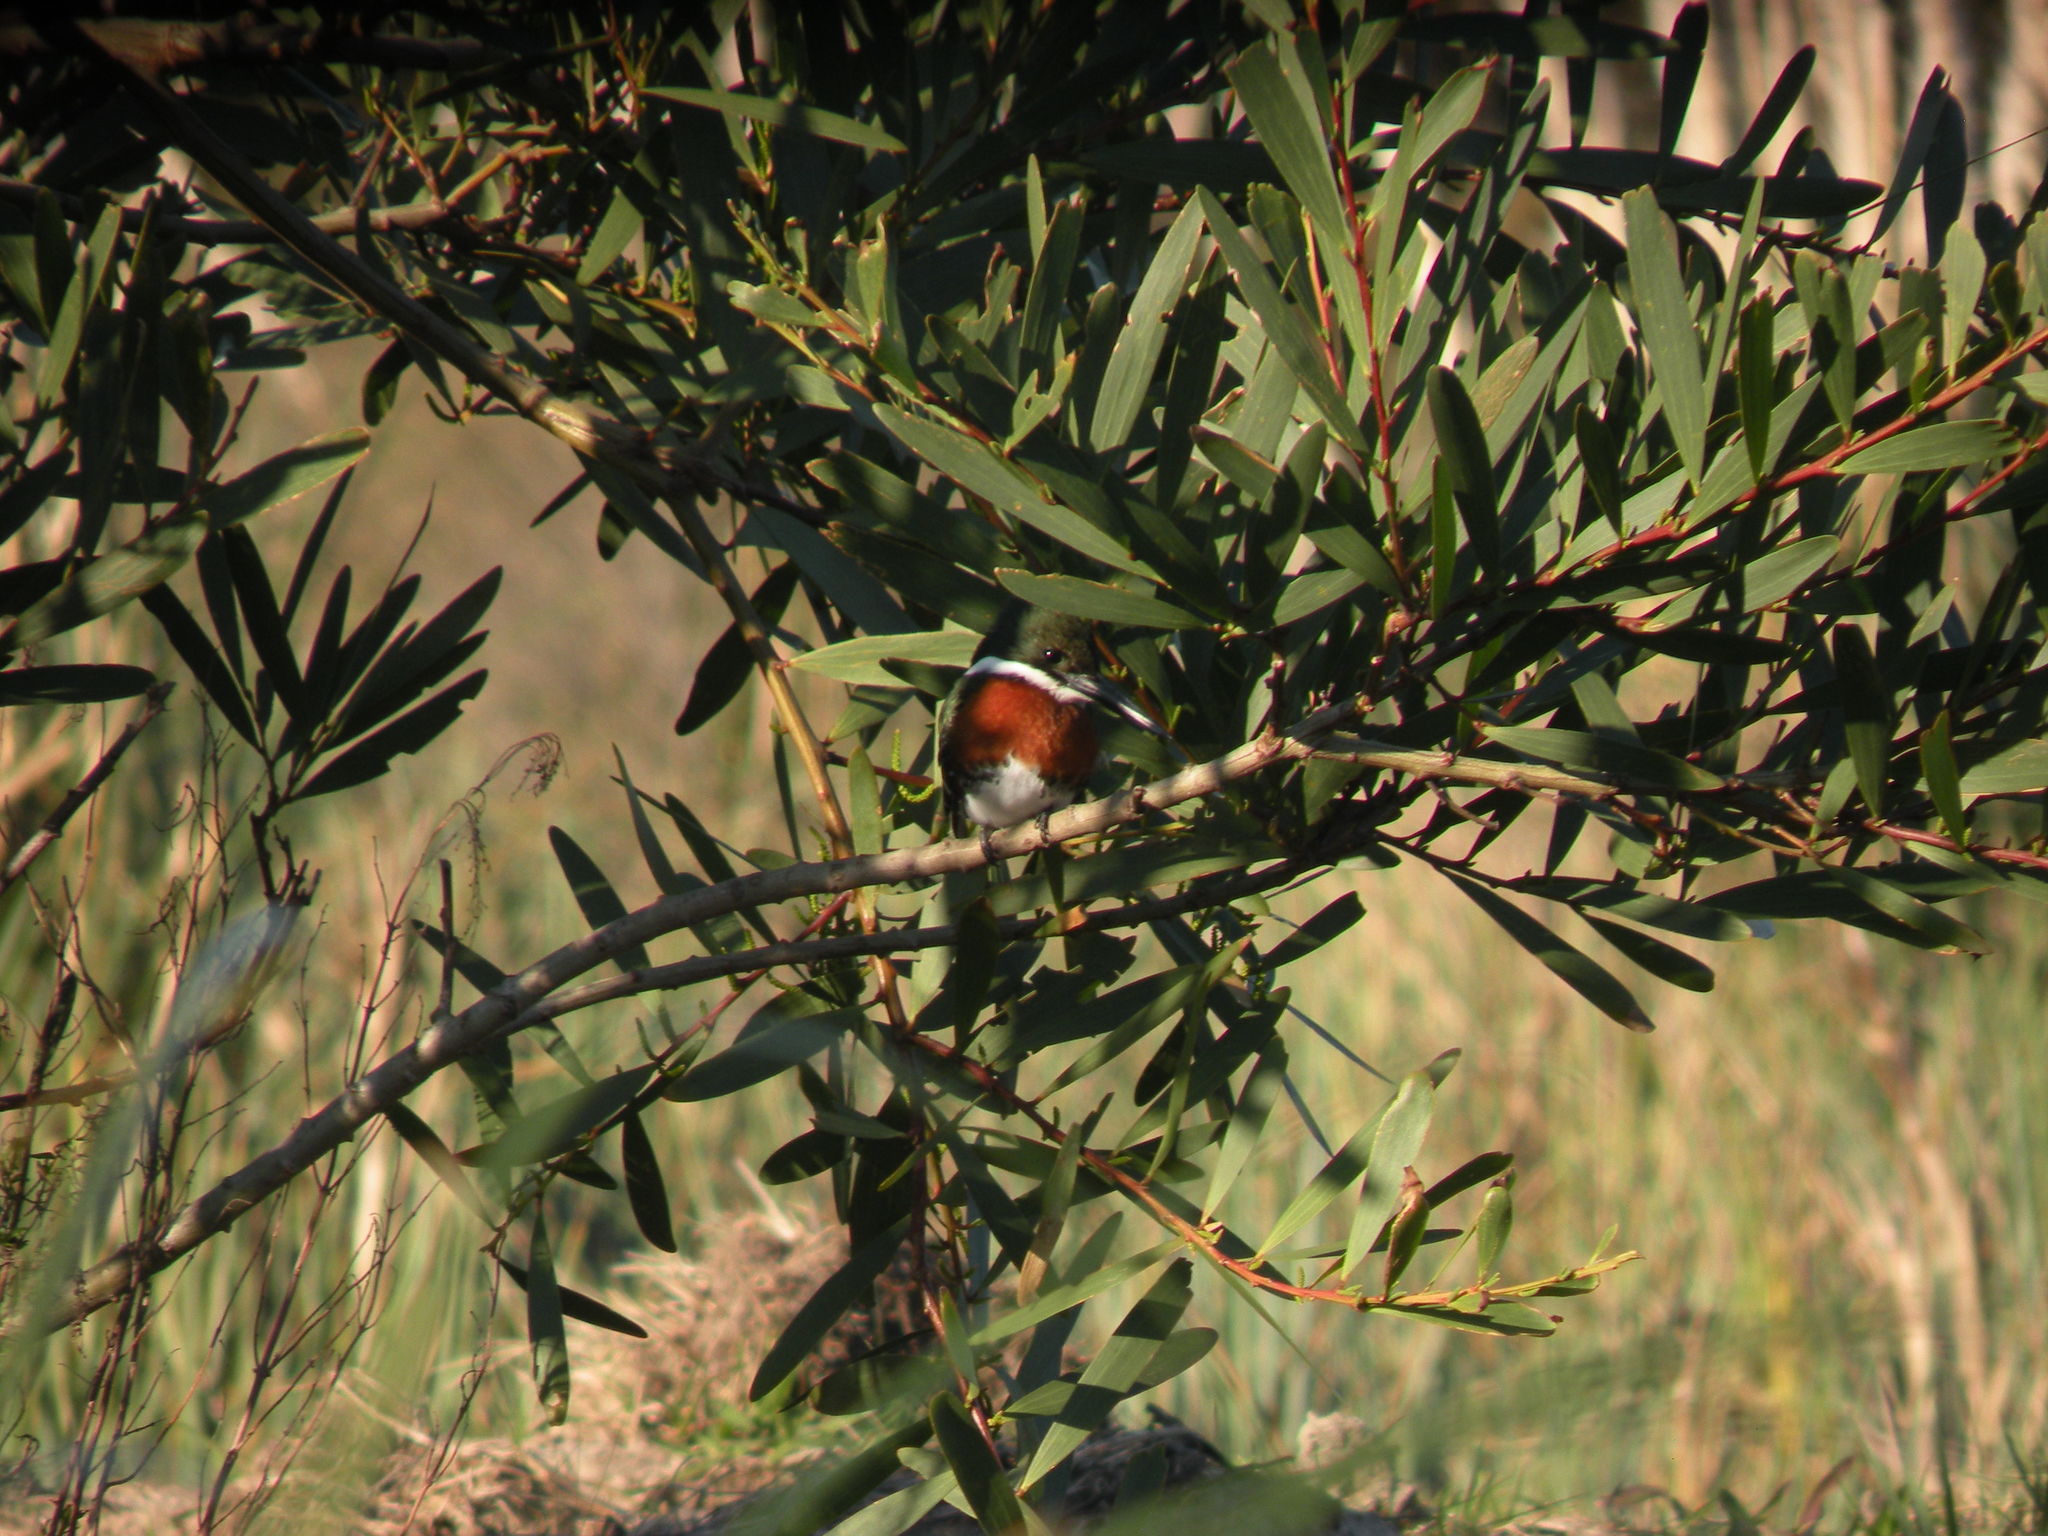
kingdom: Animalia
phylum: Chordata
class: Aves
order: Coraciiformes
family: Alcedinidae
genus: Chloroceryle
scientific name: Chloroceryle americana
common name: Green kingfisher
